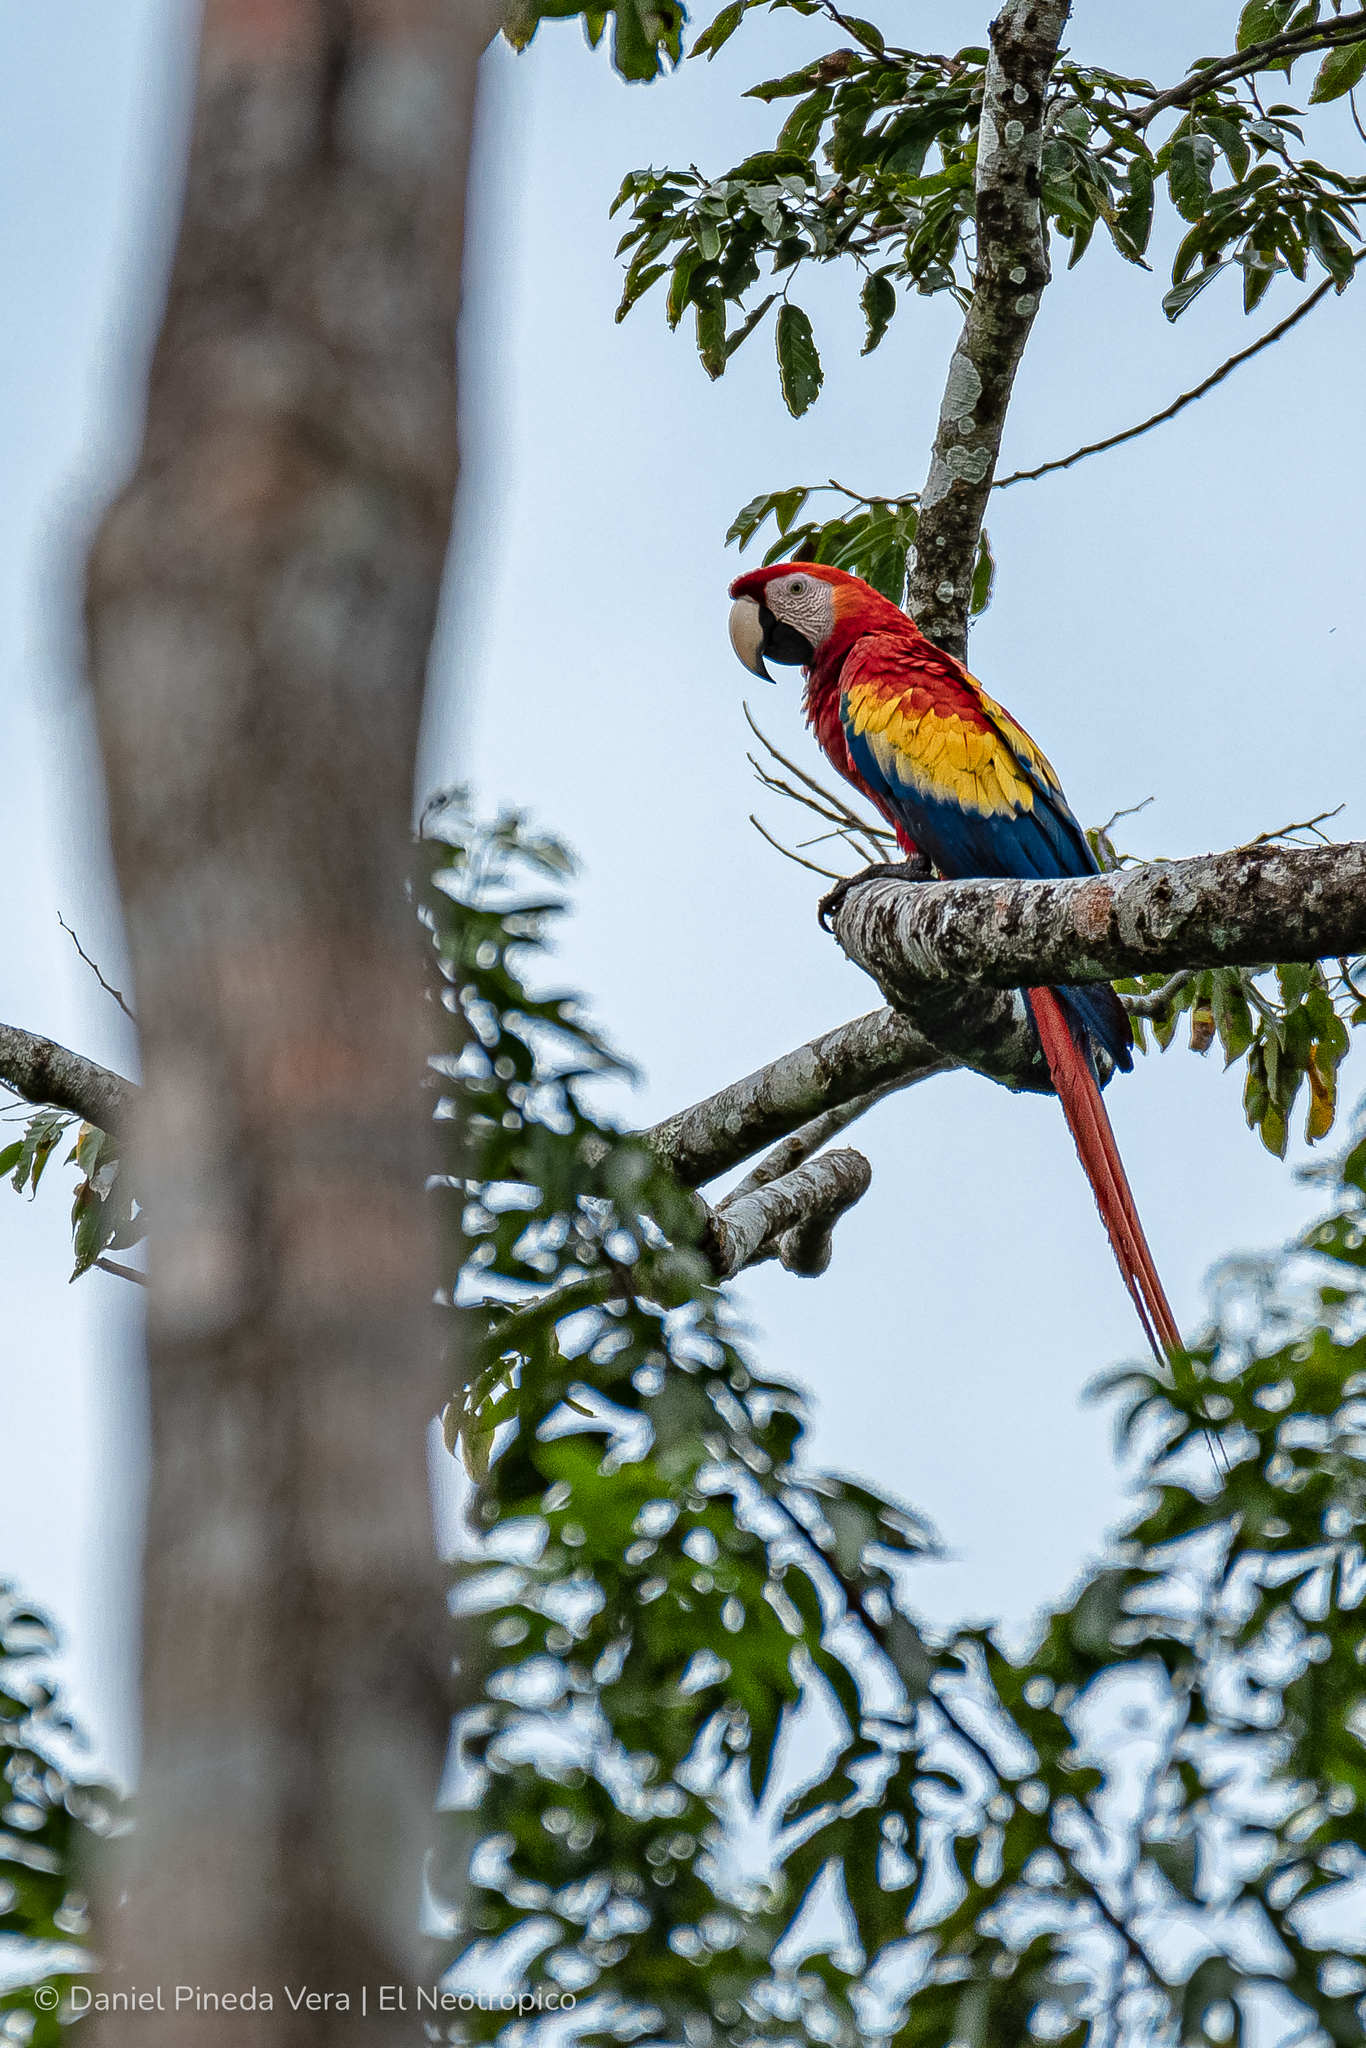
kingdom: Animalia
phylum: Chordata
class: Aves
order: Psittaciformes
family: Psittacidae
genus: Ara
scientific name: Ara macao
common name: Scarlet macaw
